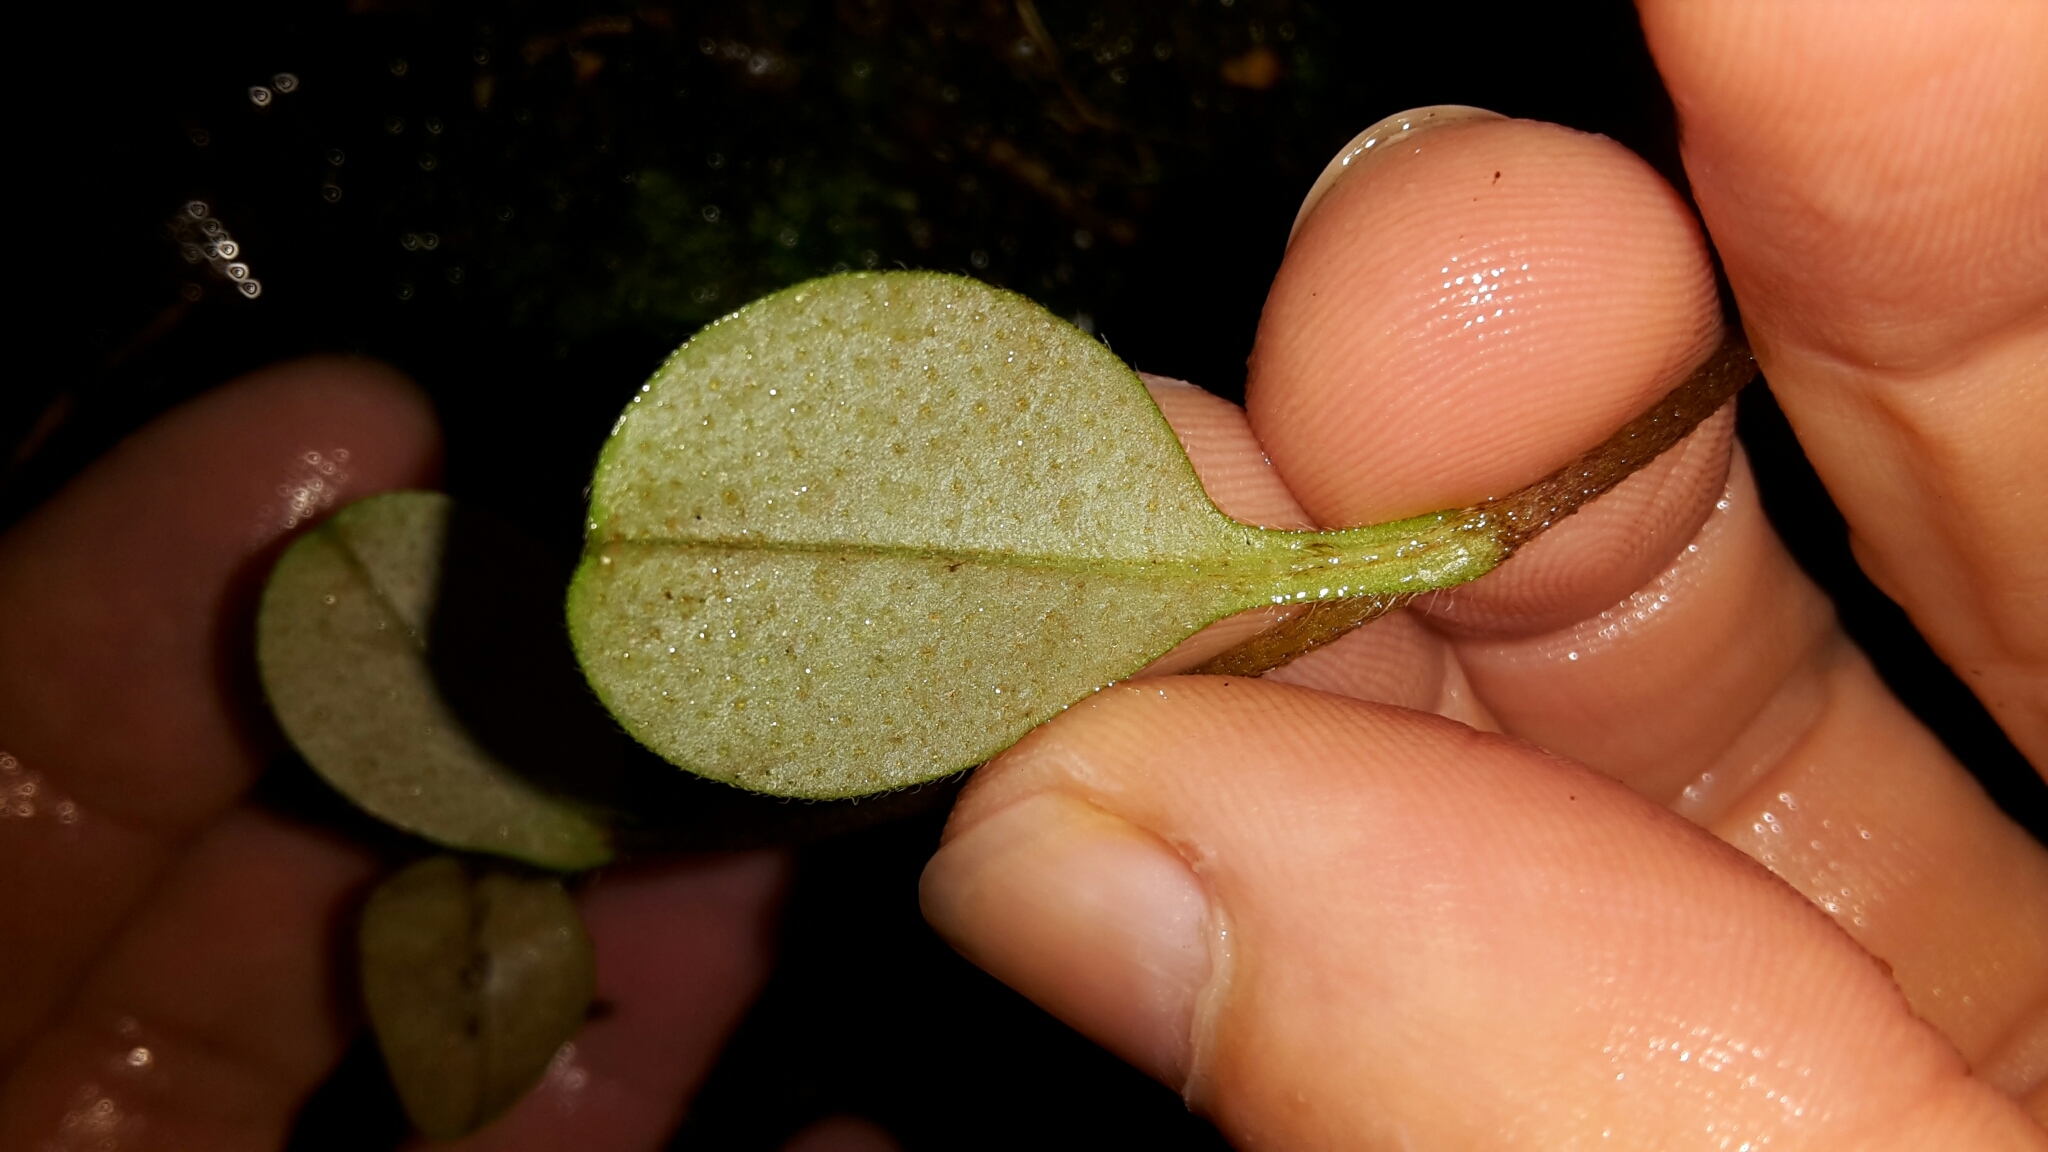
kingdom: Plantae
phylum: Tracheophyta
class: Magnoliopsida
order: Boraginales
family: Boraginaceae
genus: Myosotis
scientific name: Myosotis forsteri
